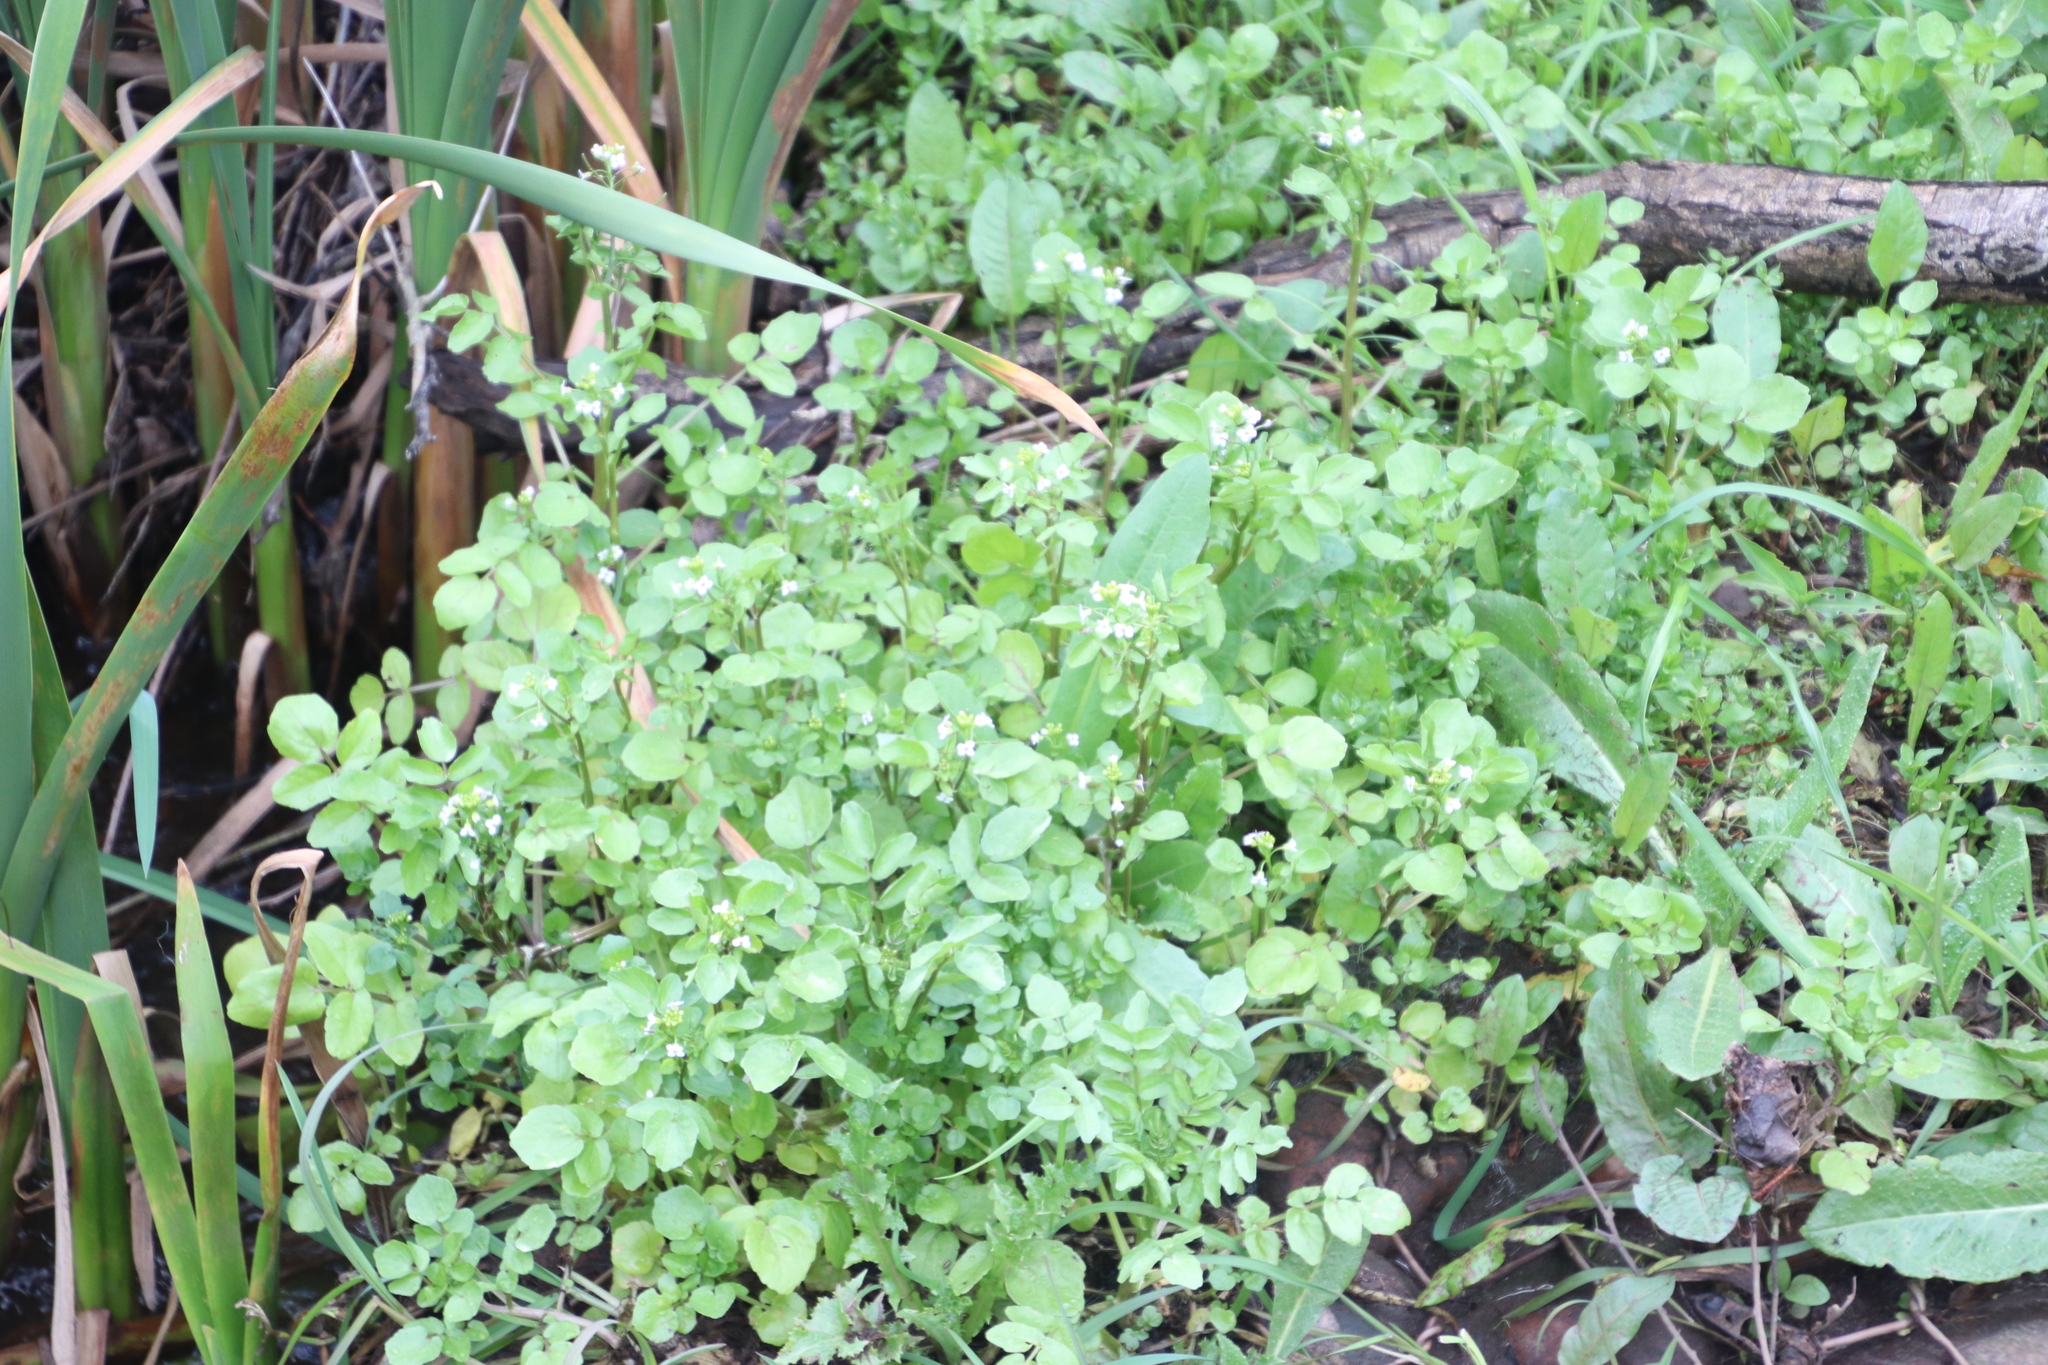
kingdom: Plantae
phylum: Tracheophyta
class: Magnoliopsida
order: Brassicales
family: Brassicaceae
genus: Nasturtium
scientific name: Nasturtium officinale
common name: Watercress
